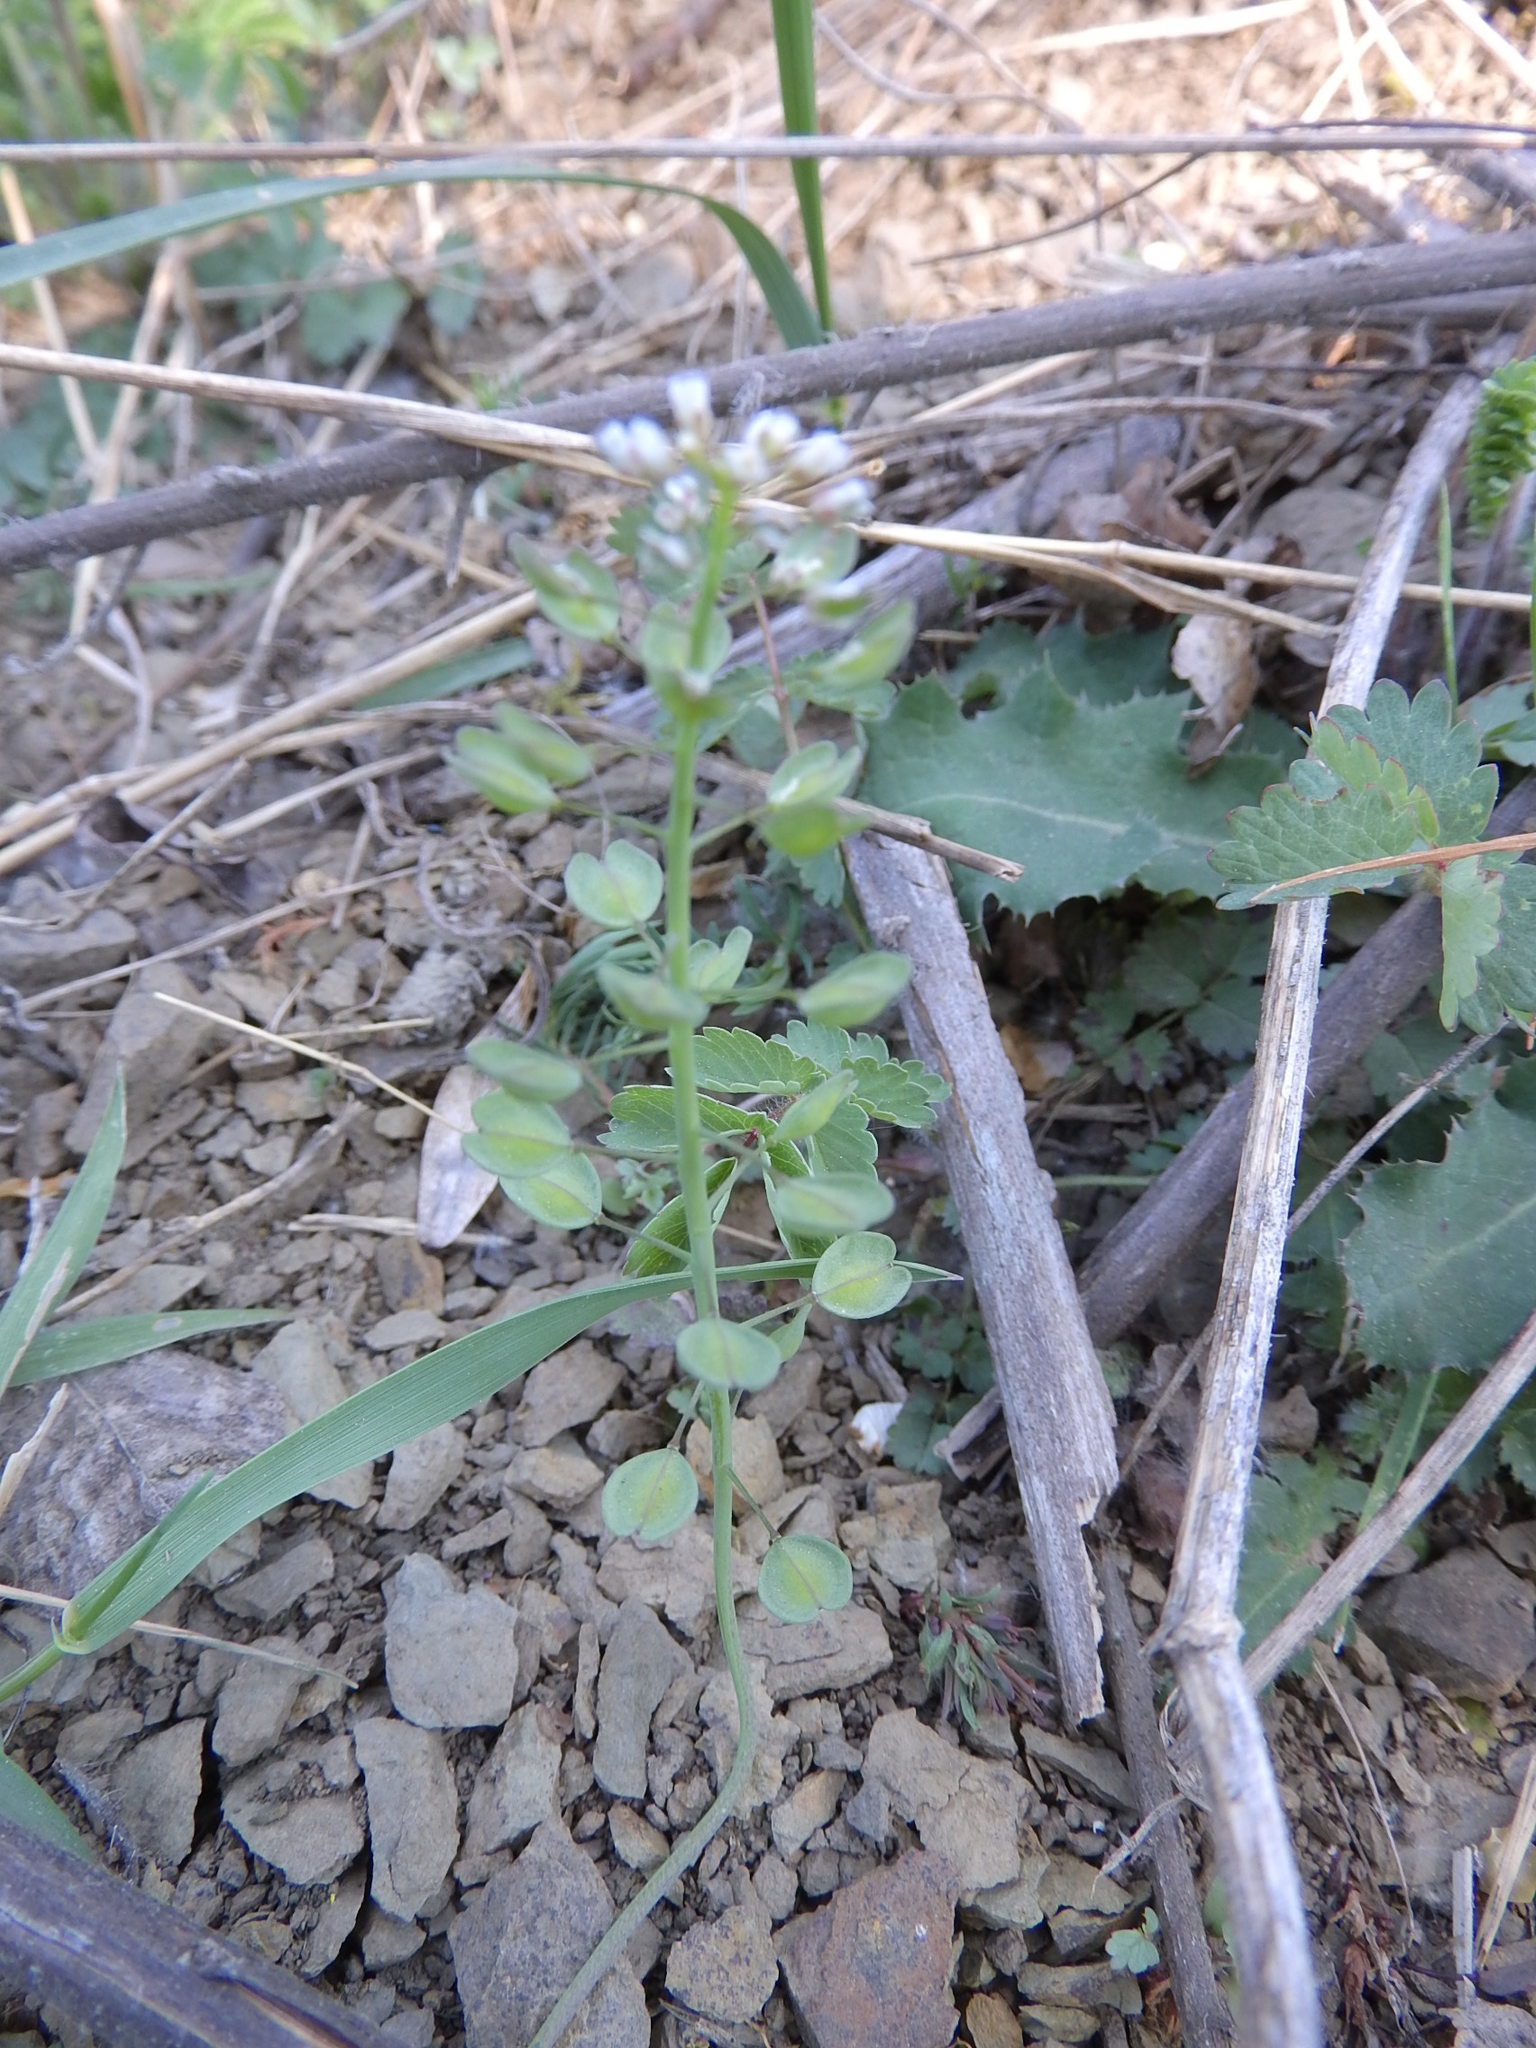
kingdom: Plantae
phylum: Tracheophyta
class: Magnoliopsida
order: Brassicales
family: Brassicaceae
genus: Noccaea
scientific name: Noccaea perfoliata
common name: Perfoliate pennycress
